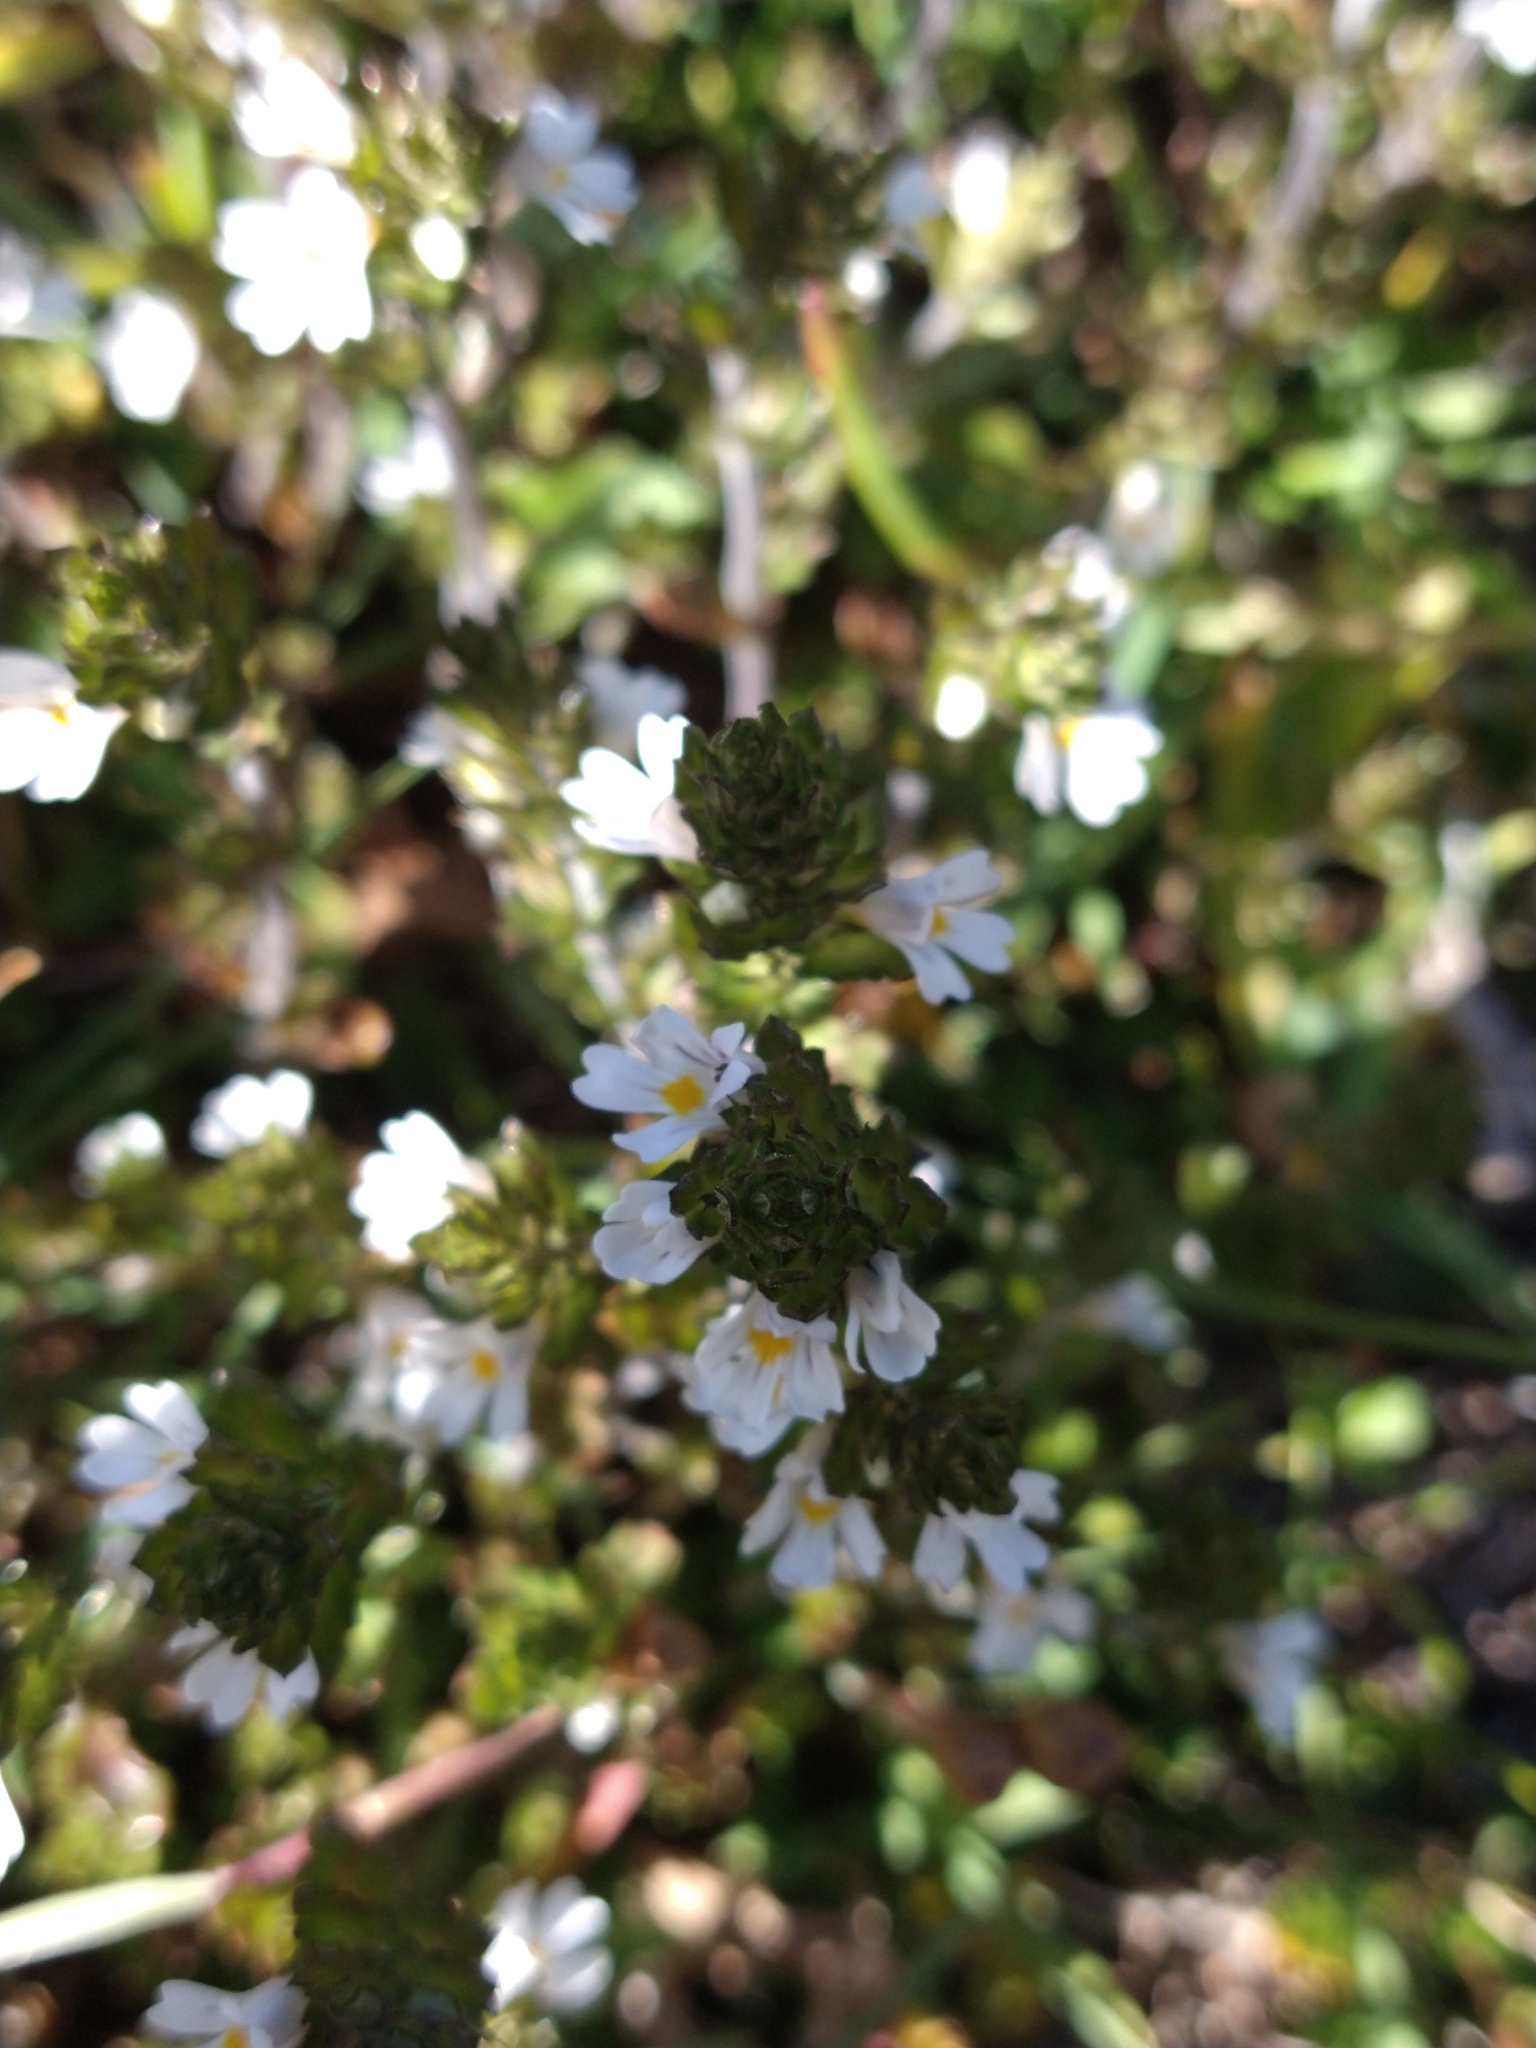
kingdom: Plantae
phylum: Tracheophyta
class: Magnoliopsida
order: Lamiales
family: Orobanchaceae
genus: Euphrasia
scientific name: Euphrasia officinalis
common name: Eyebright
